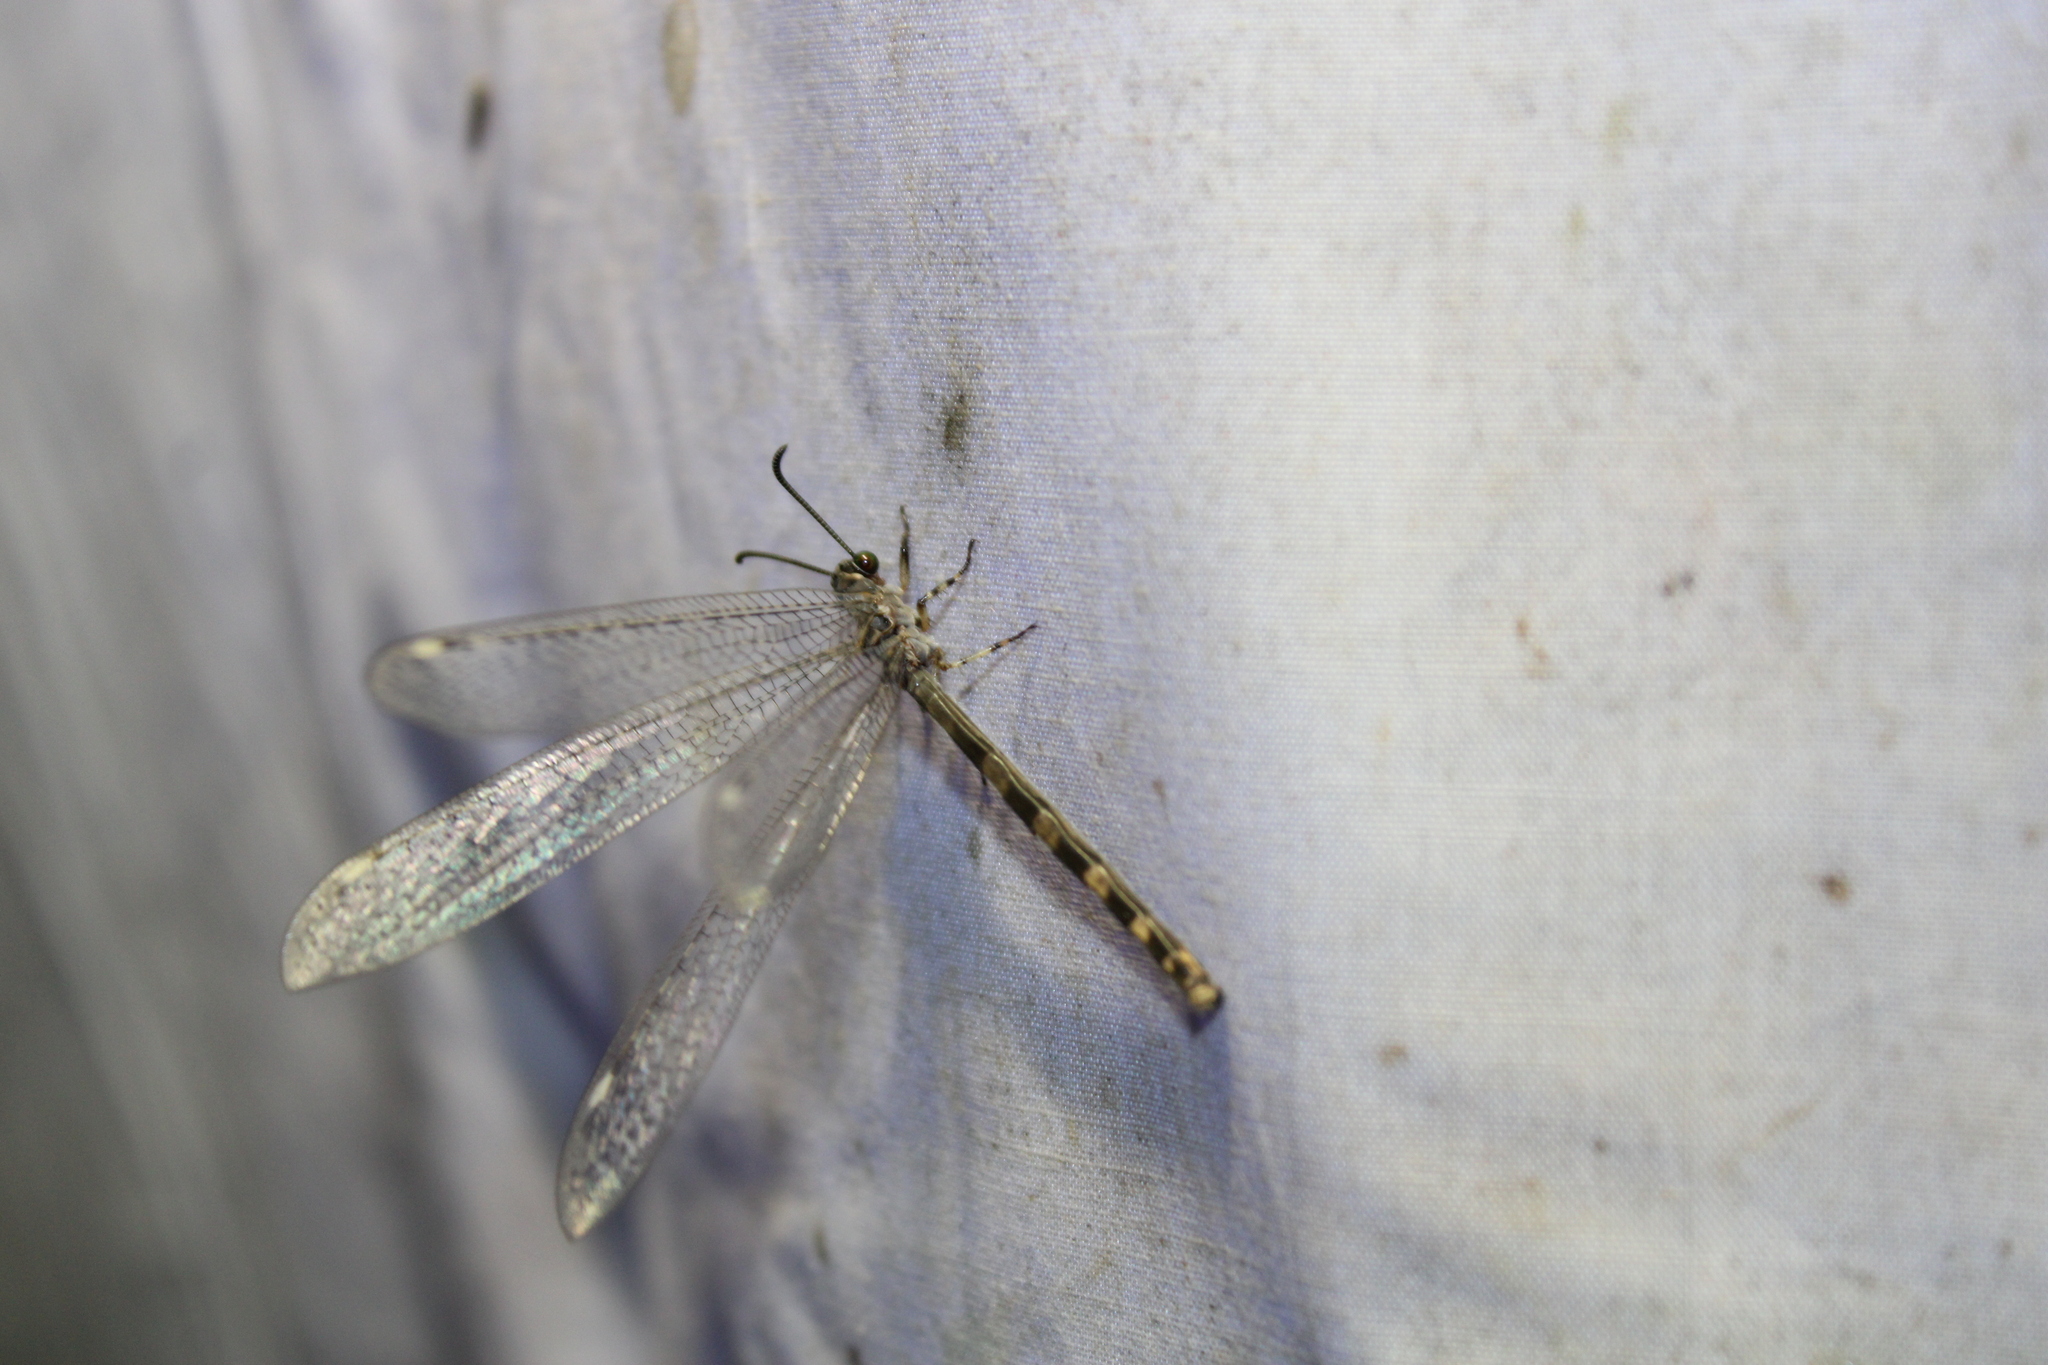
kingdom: Animalia
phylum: Arthropoda
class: Insecta
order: Neuroptera
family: Myrmeleontidae
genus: Myrmeleon
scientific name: Myrmeleon immaculatus
